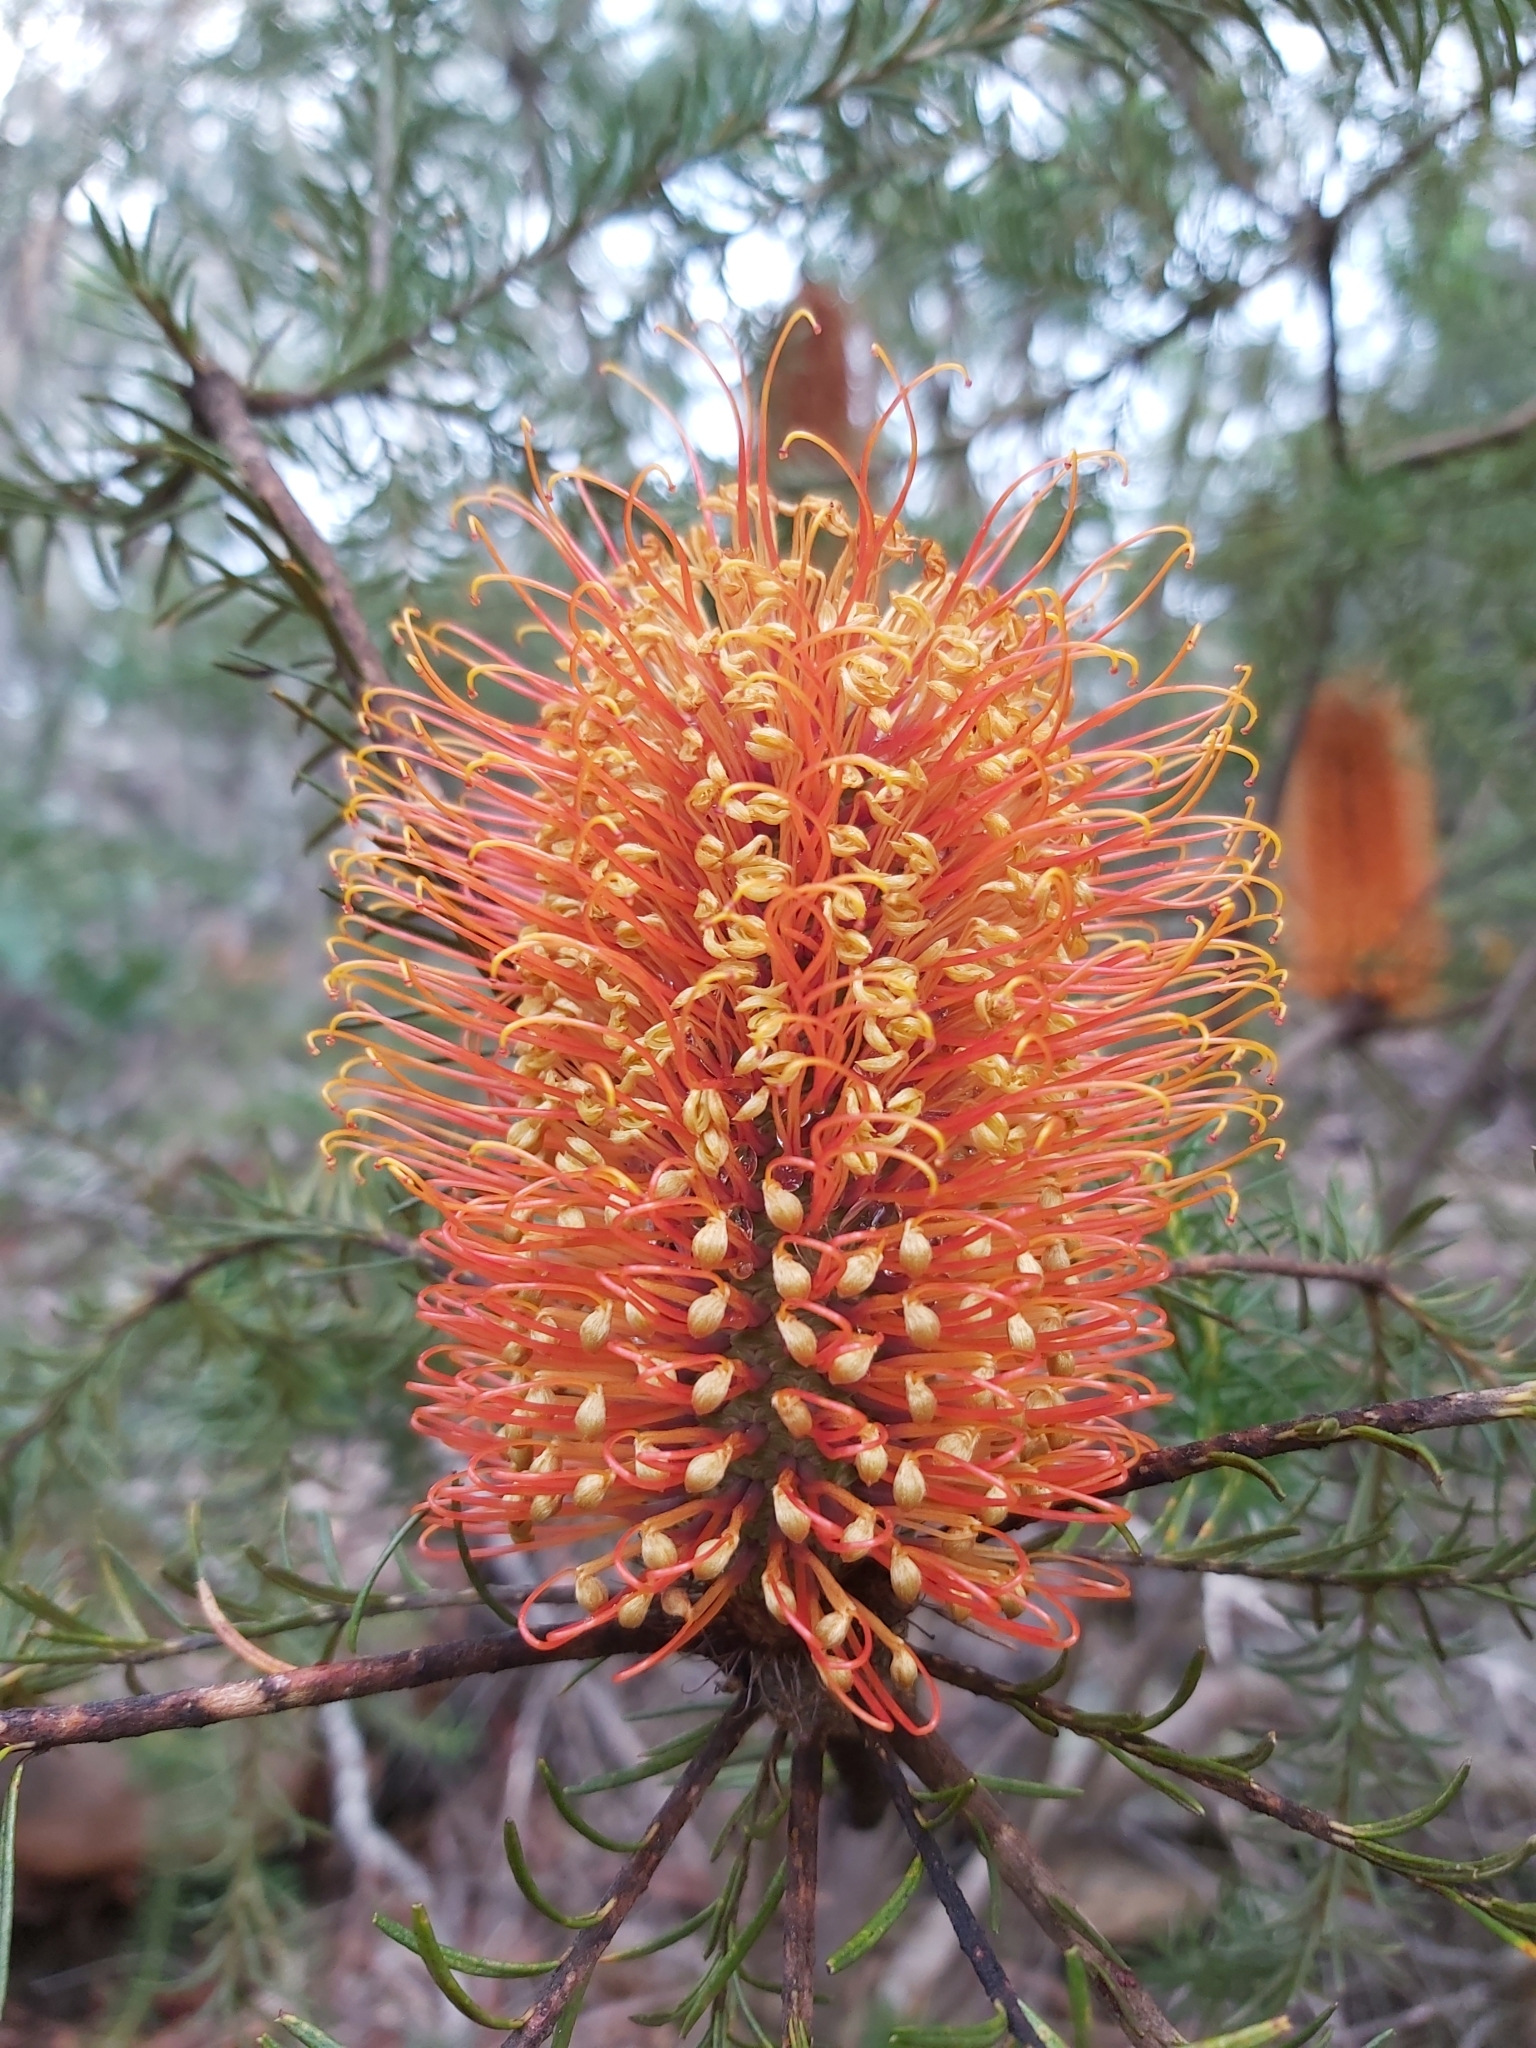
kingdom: Plantae
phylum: Tracheophyta
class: Magnoliopsida
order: Proteales
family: Proteaceae
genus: Banksia
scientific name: Banksia ericifolia
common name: Heath-leaf banksia
